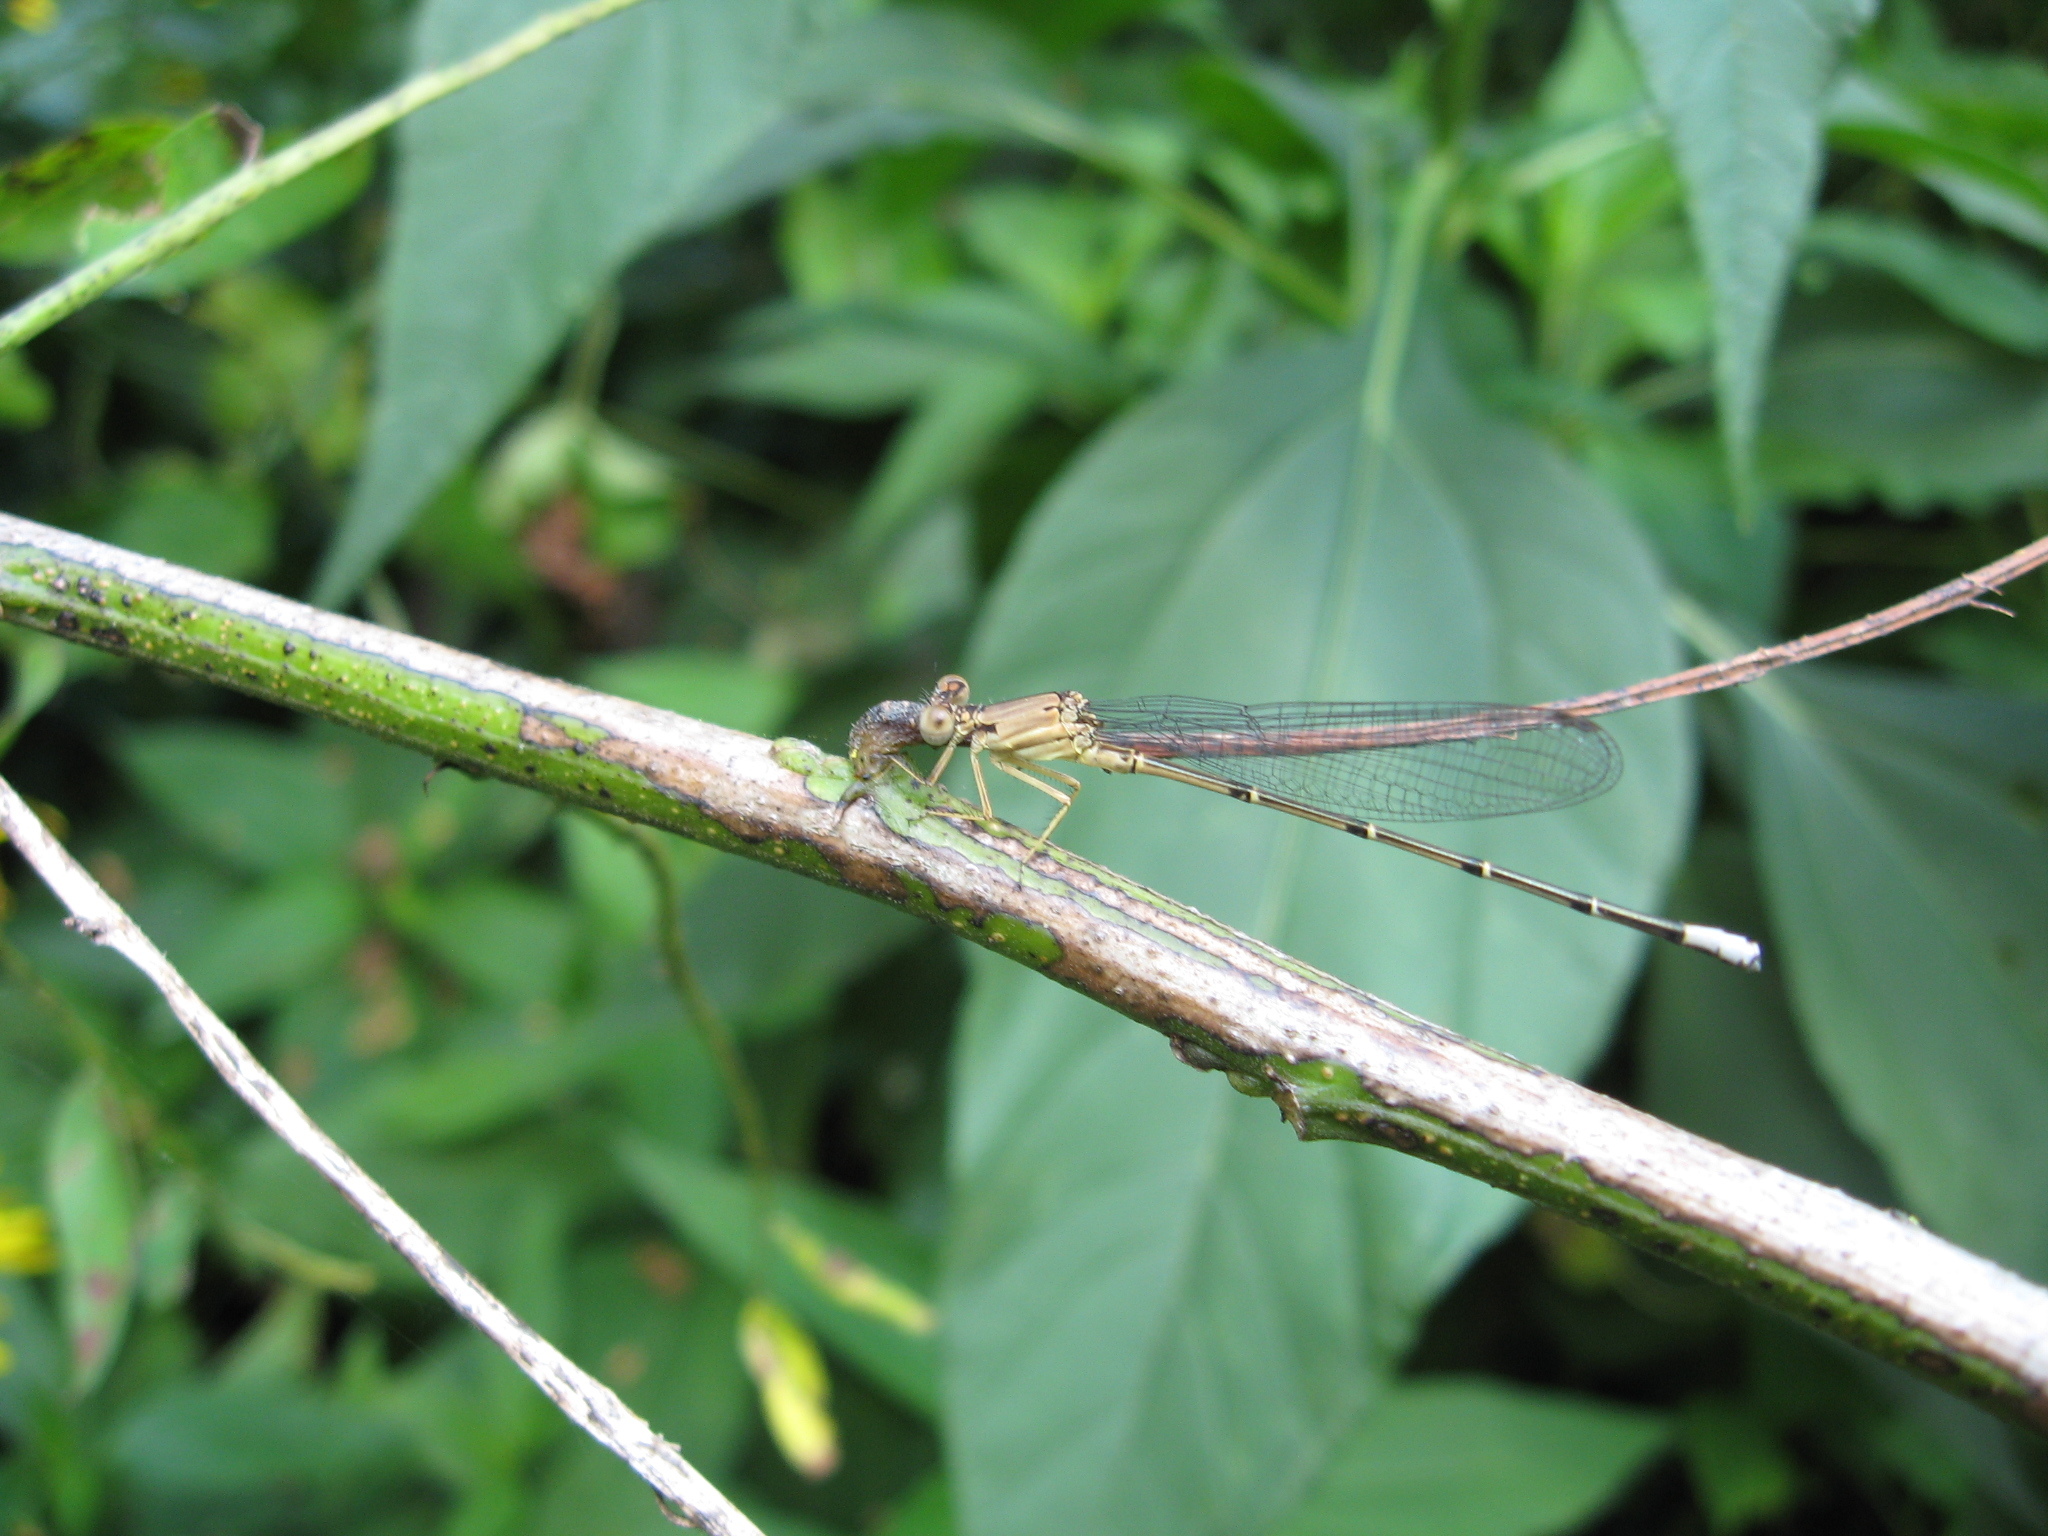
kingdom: Animalia
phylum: Arthropoda
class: Insecta
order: Odonata
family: Coenagrionidae
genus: Argia
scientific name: Argia apicalis
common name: Blue-fronted dancer
